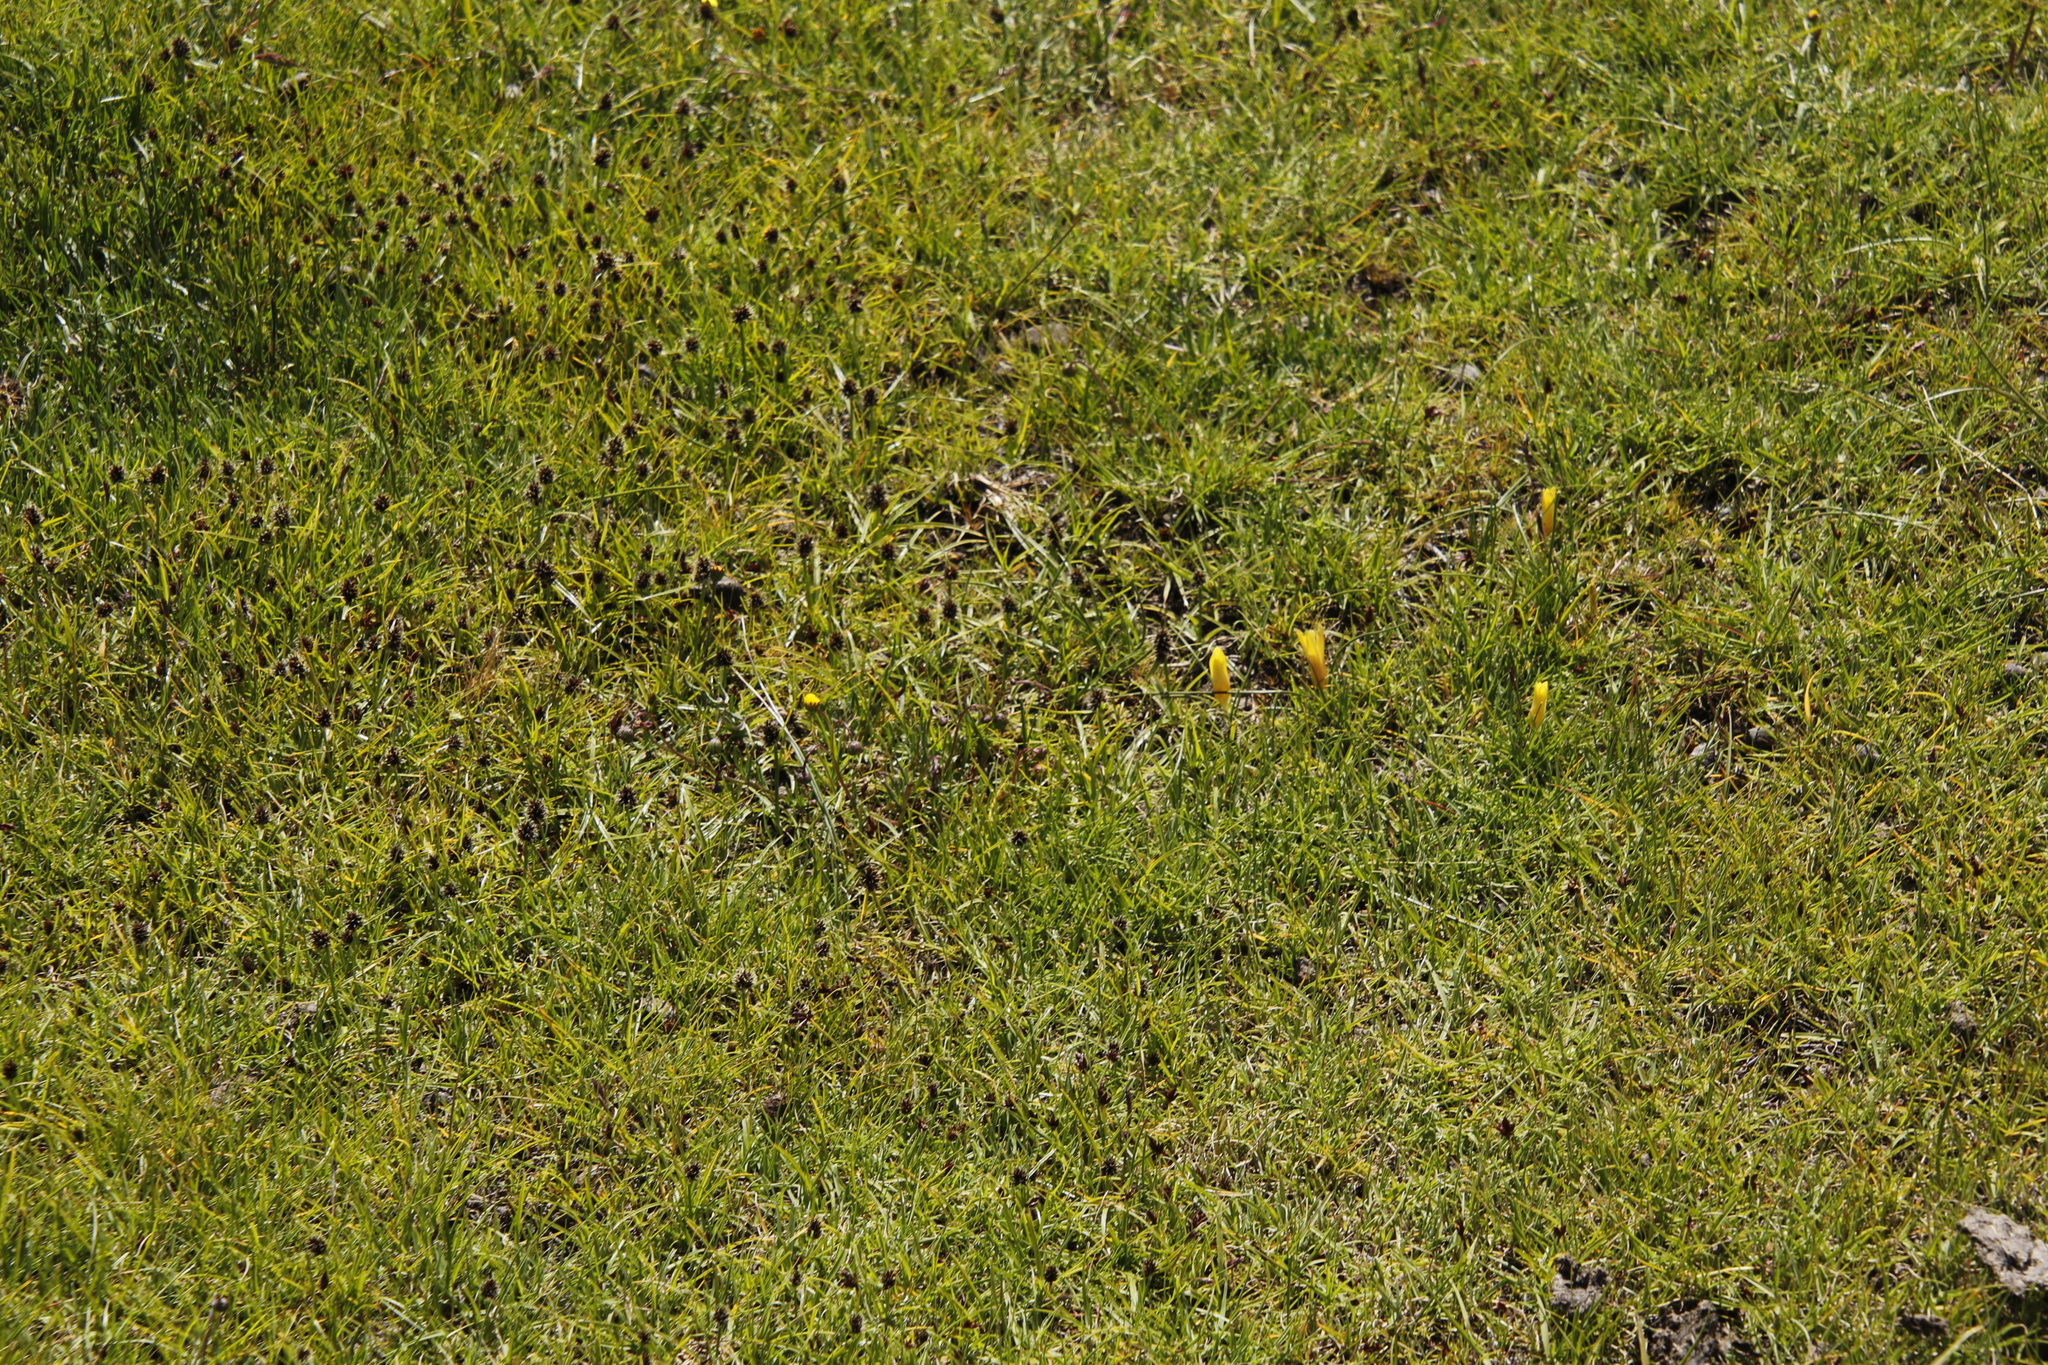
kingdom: Plantae
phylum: Tracheophyta
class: Liliopsida
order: Asparagales
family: Iridaceae
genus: Romulea
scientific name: Romulea macowanii
